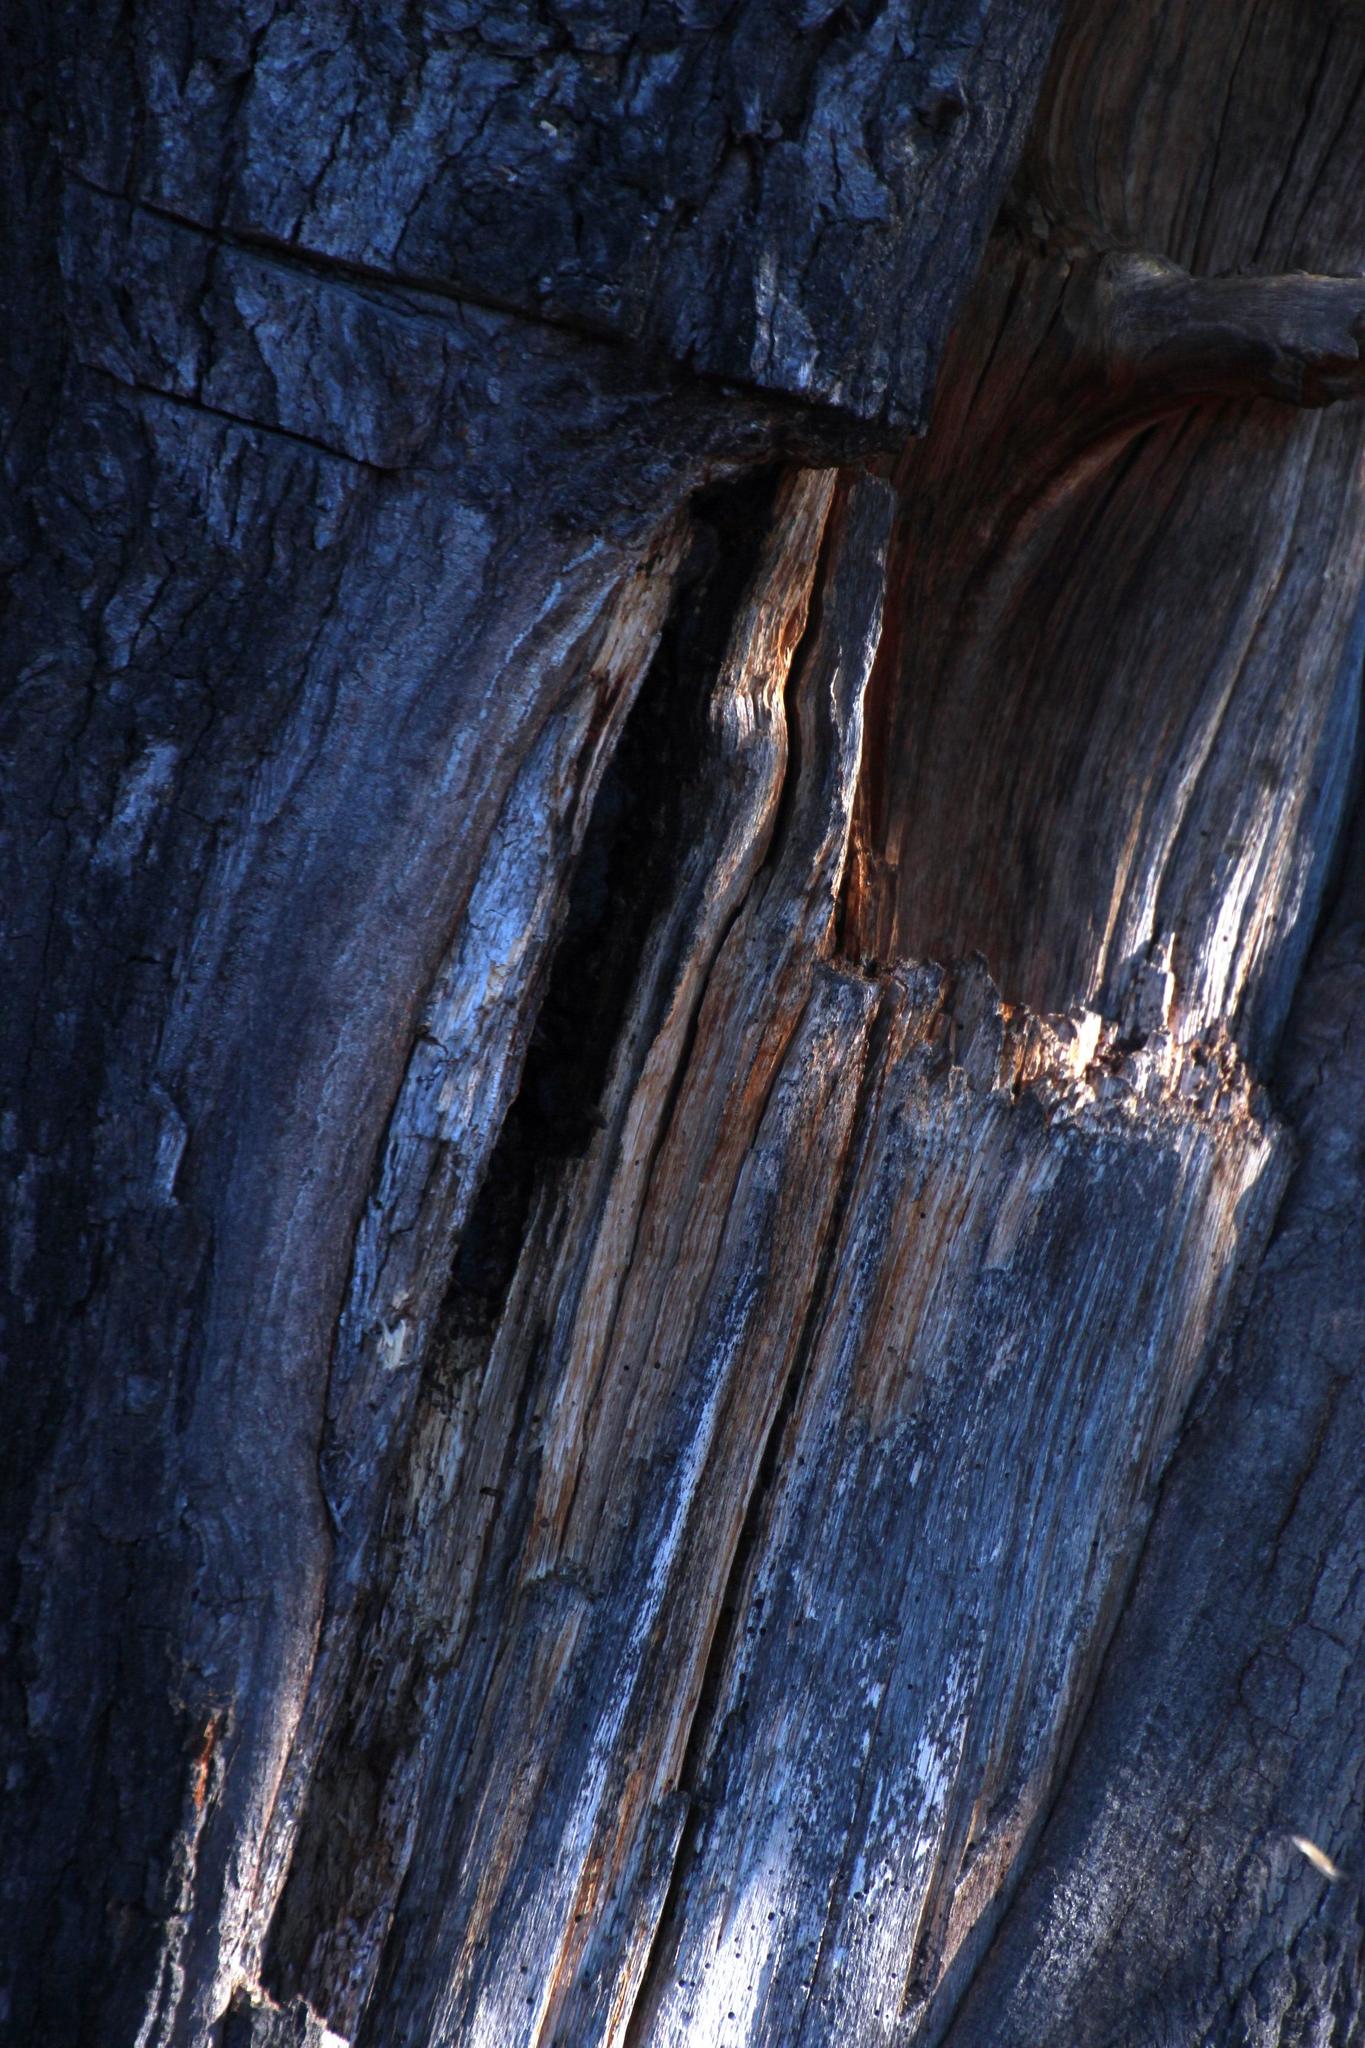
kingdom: Animalia
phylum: Arthropoda
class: Insecta
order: Hymenoptera
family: Apidae
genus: Apis
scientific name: Apis mellifera
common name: Honey bee
